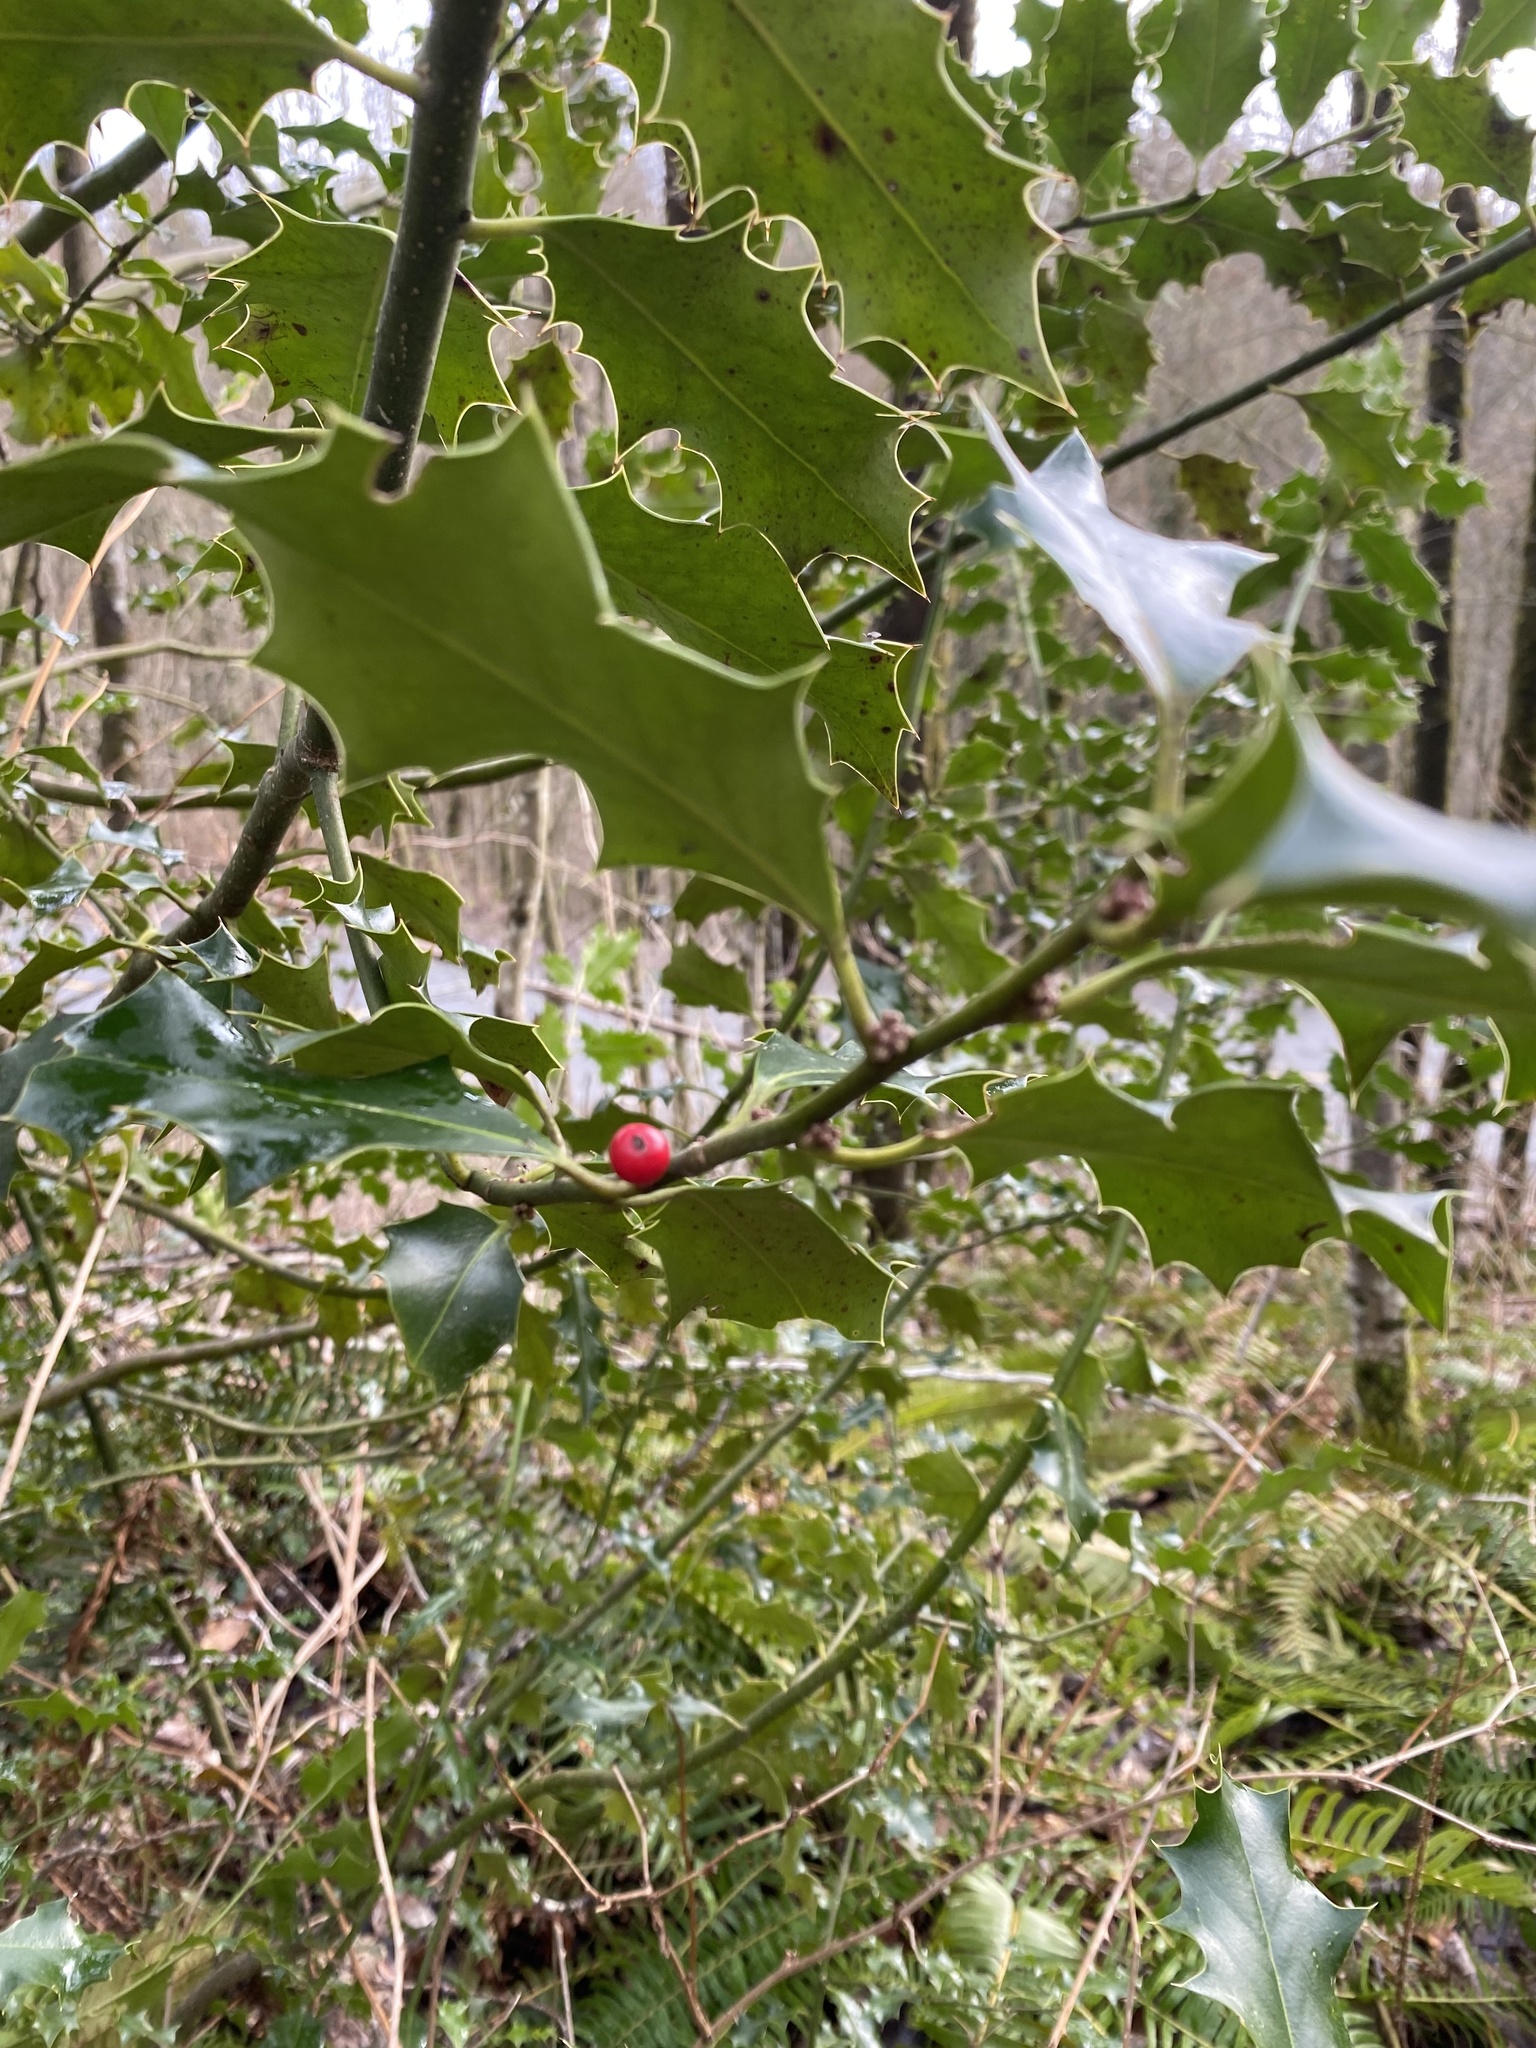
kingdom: Plantae
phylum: Tracheophyta
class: Magnoliopsida
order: Aquifoliales
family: Aquifoliaceae
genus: Ilex
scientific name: Ilex aquifolium
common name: English holly
